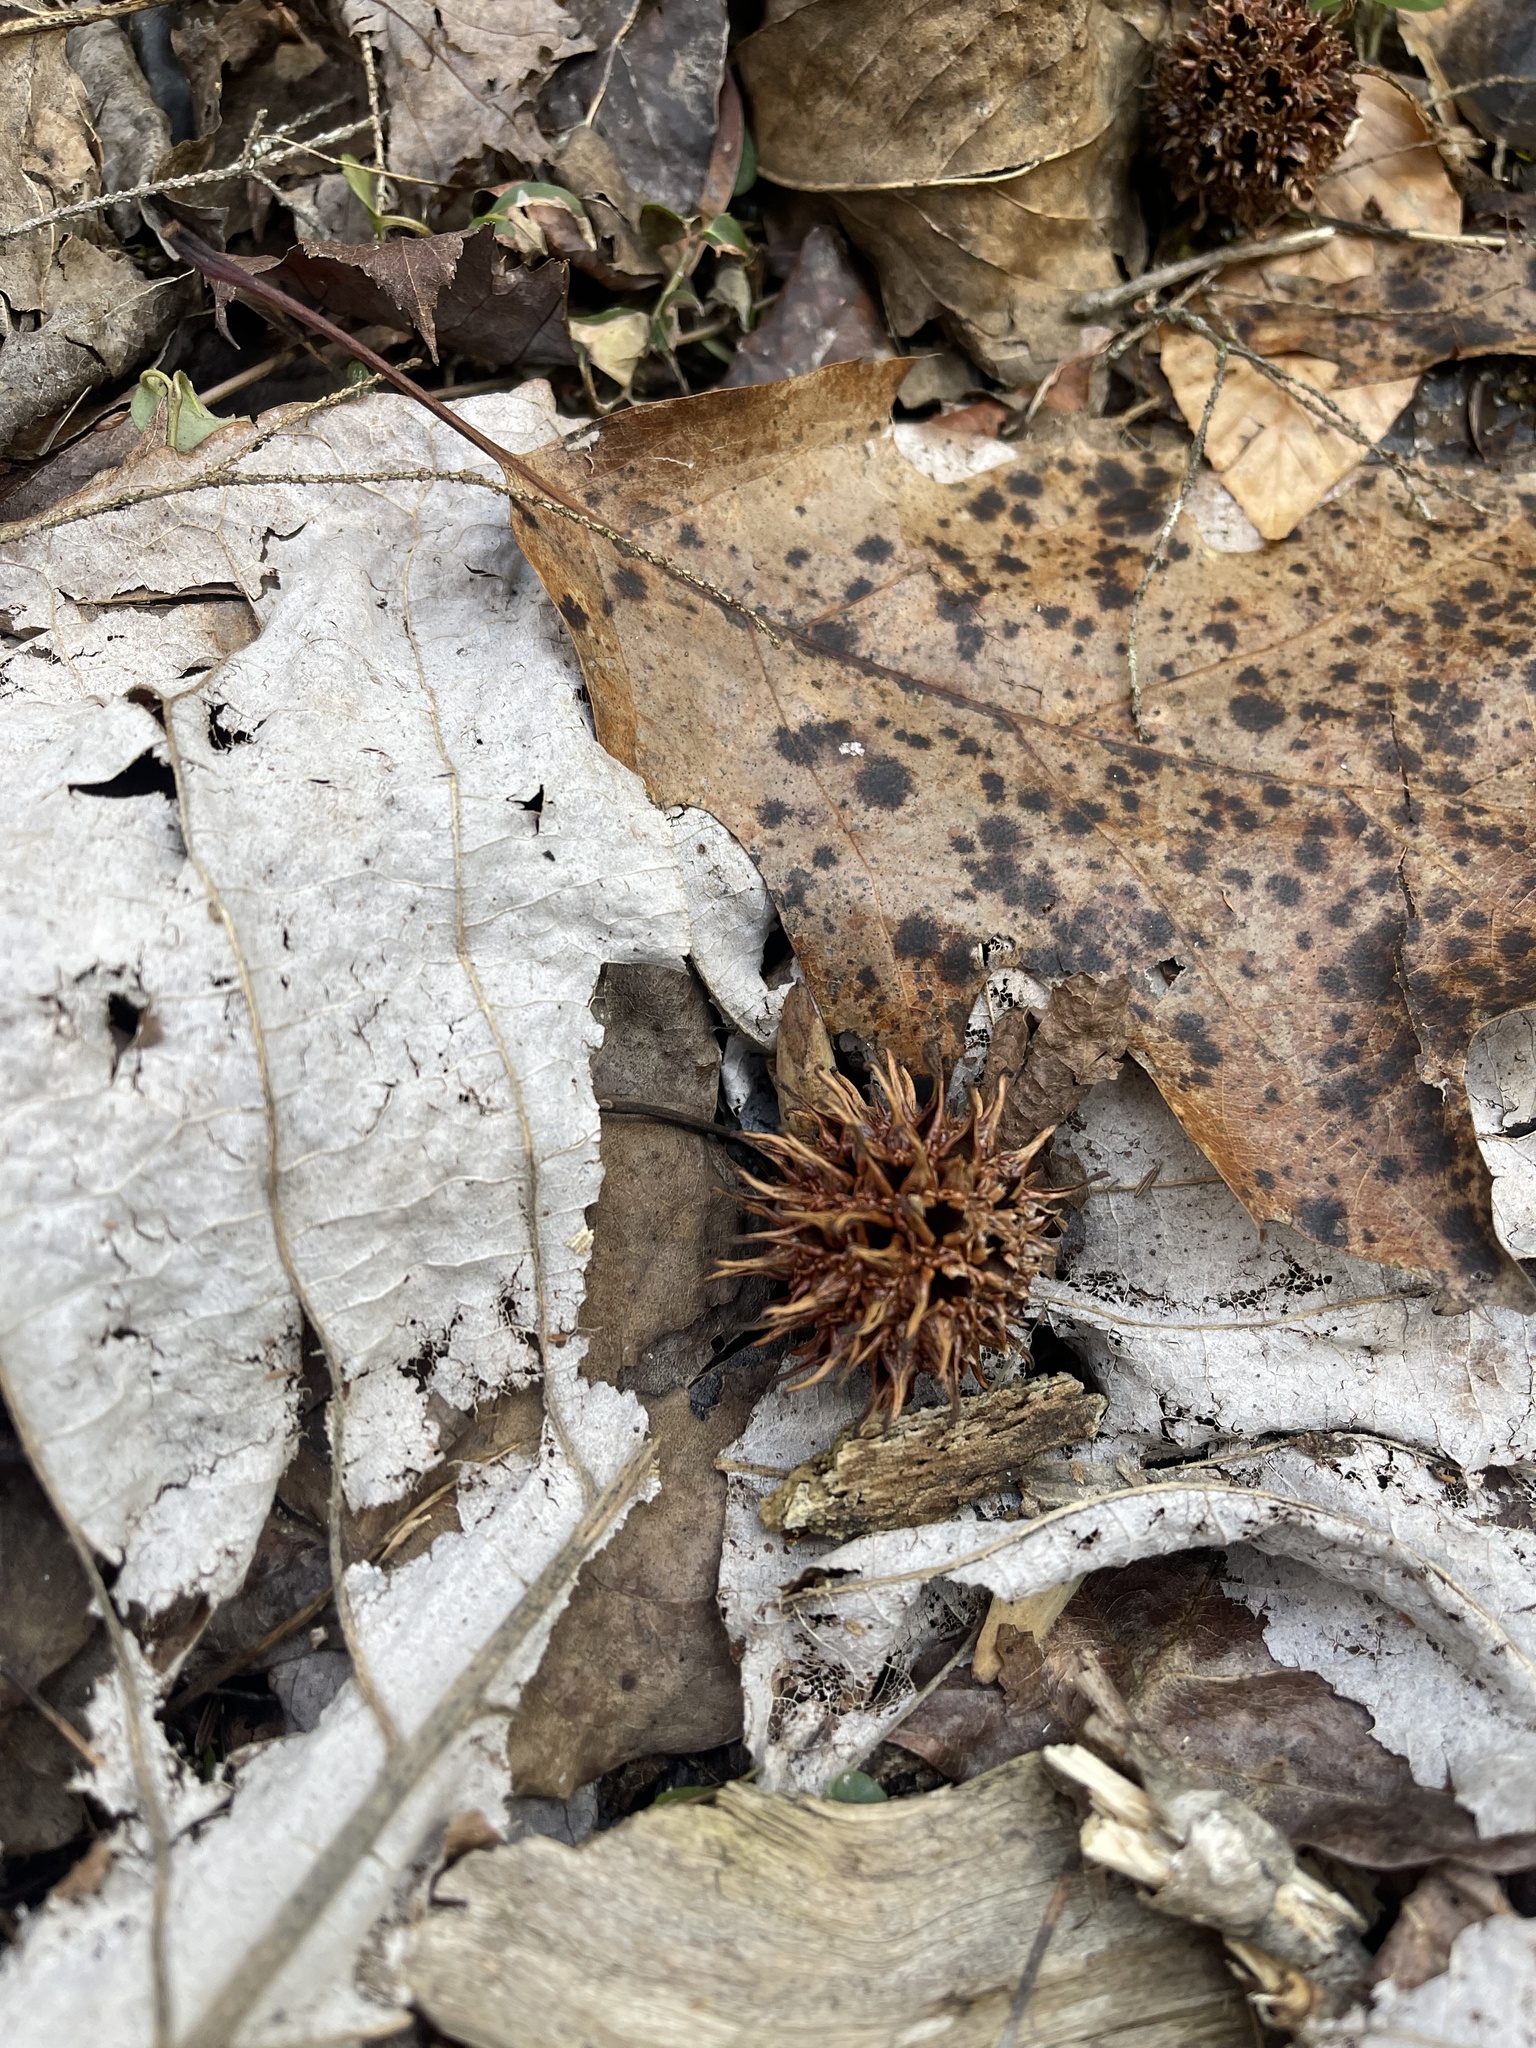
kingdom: Plantae
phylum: Tracheophyta
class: Magnoliopsida
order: Saxifragales
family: Altingiaceae
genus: Liquidambar
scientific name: Liquidambar styraciflua
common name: Sweet gum
